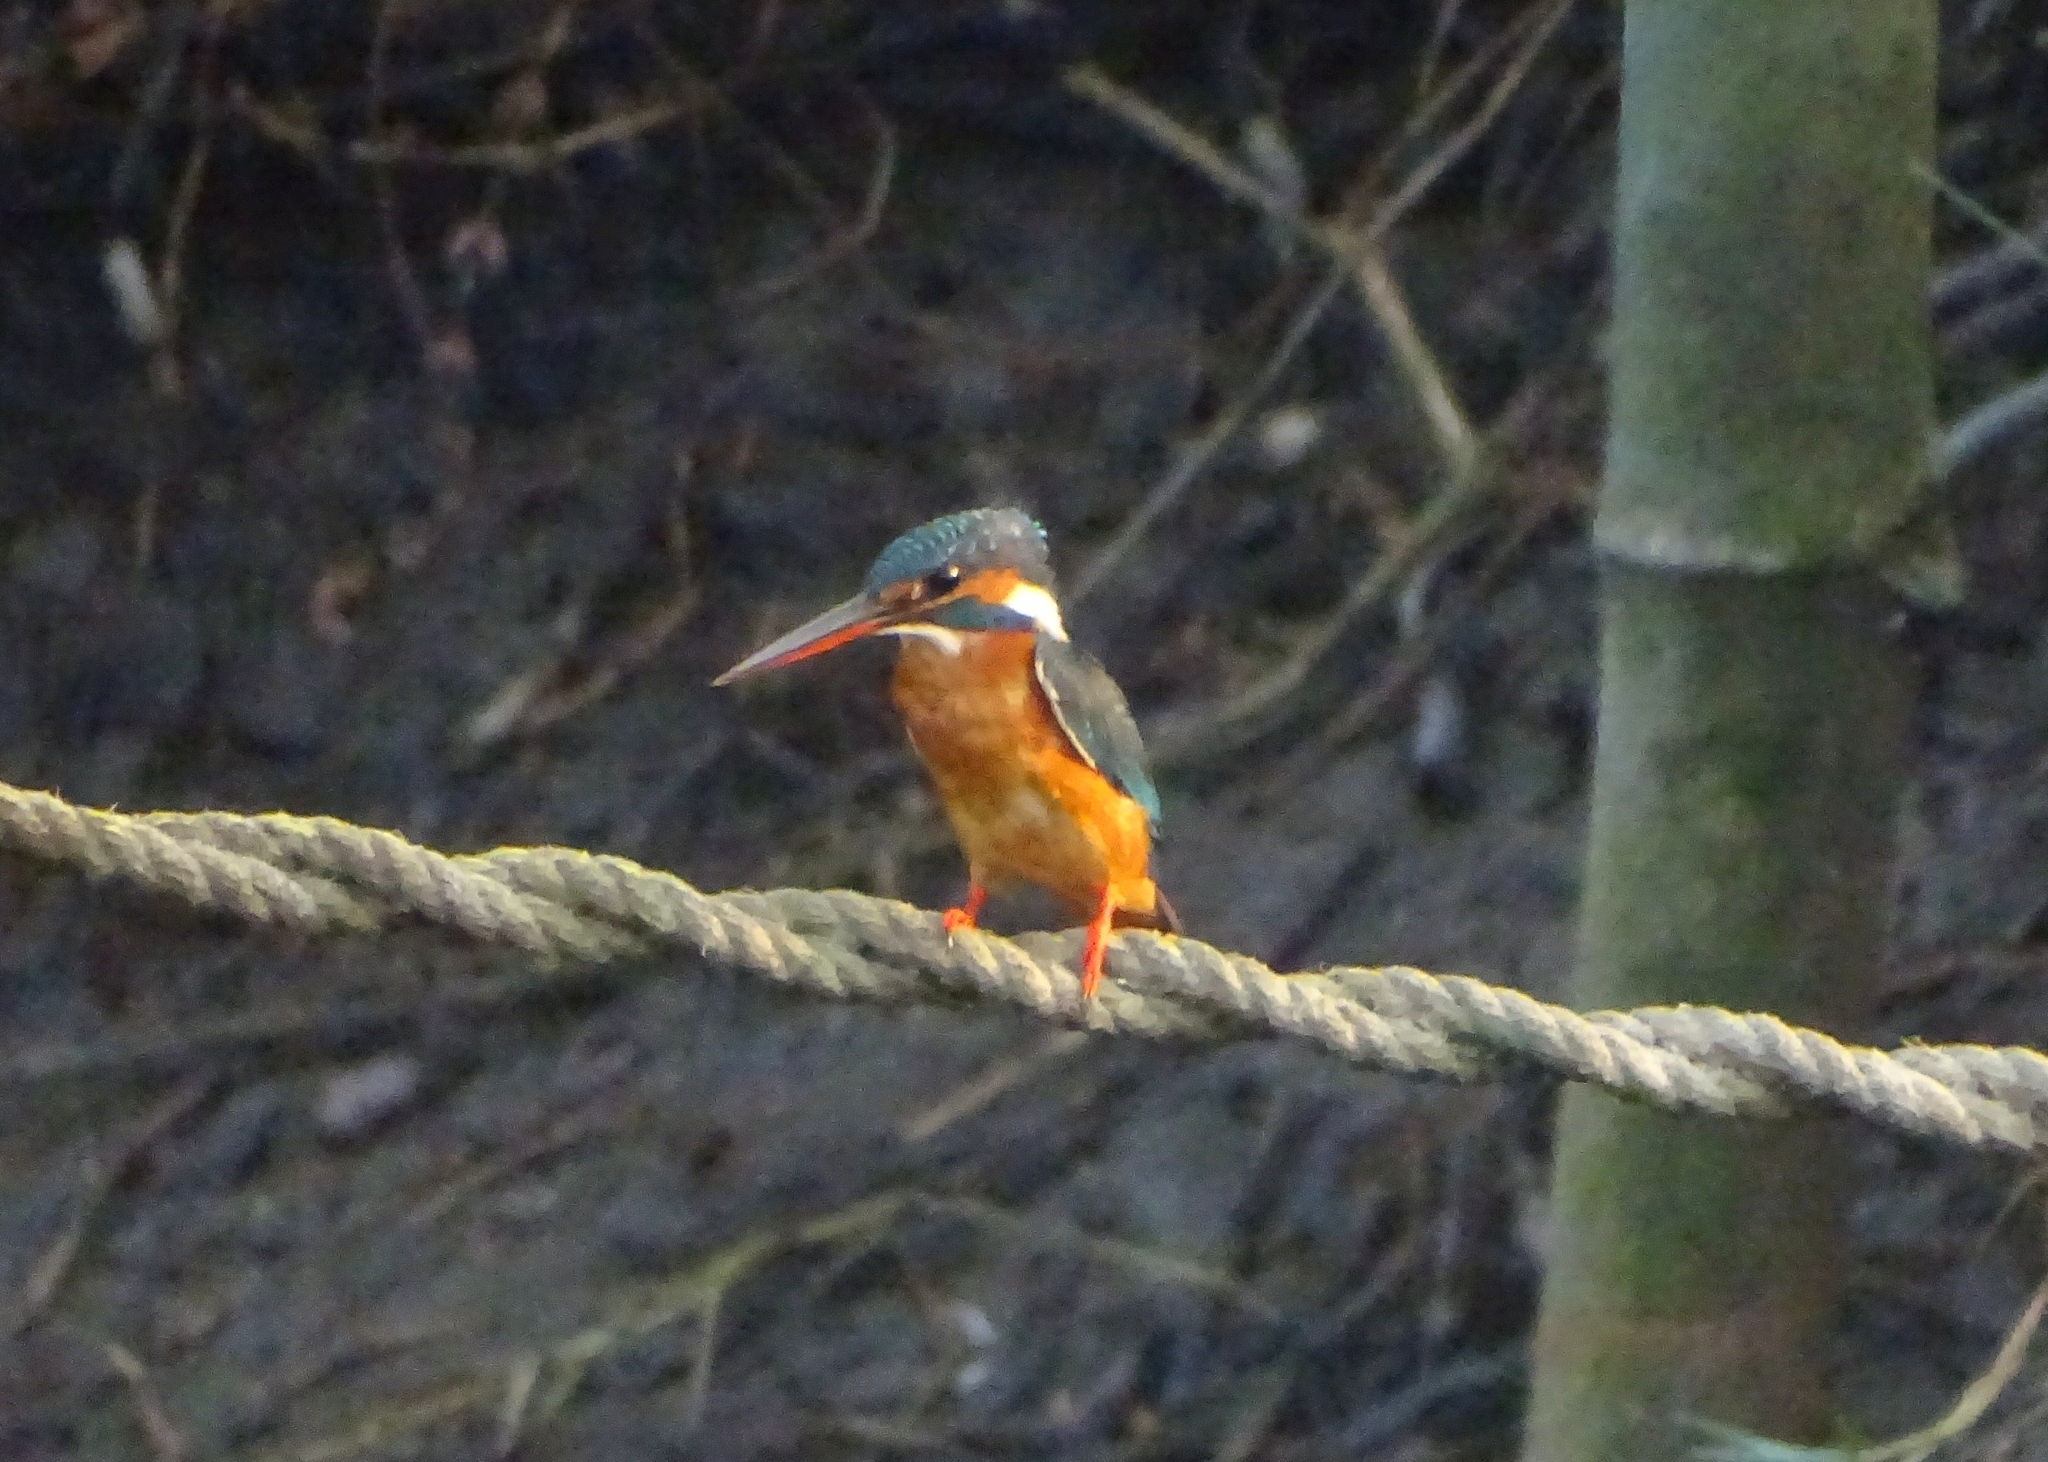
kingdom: Animalia
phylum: Chordata
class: Aves
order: Coraciiformes
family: Alcedinidae
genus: Alcedo
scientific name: Alcedo atthis
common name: Common kingfisher
